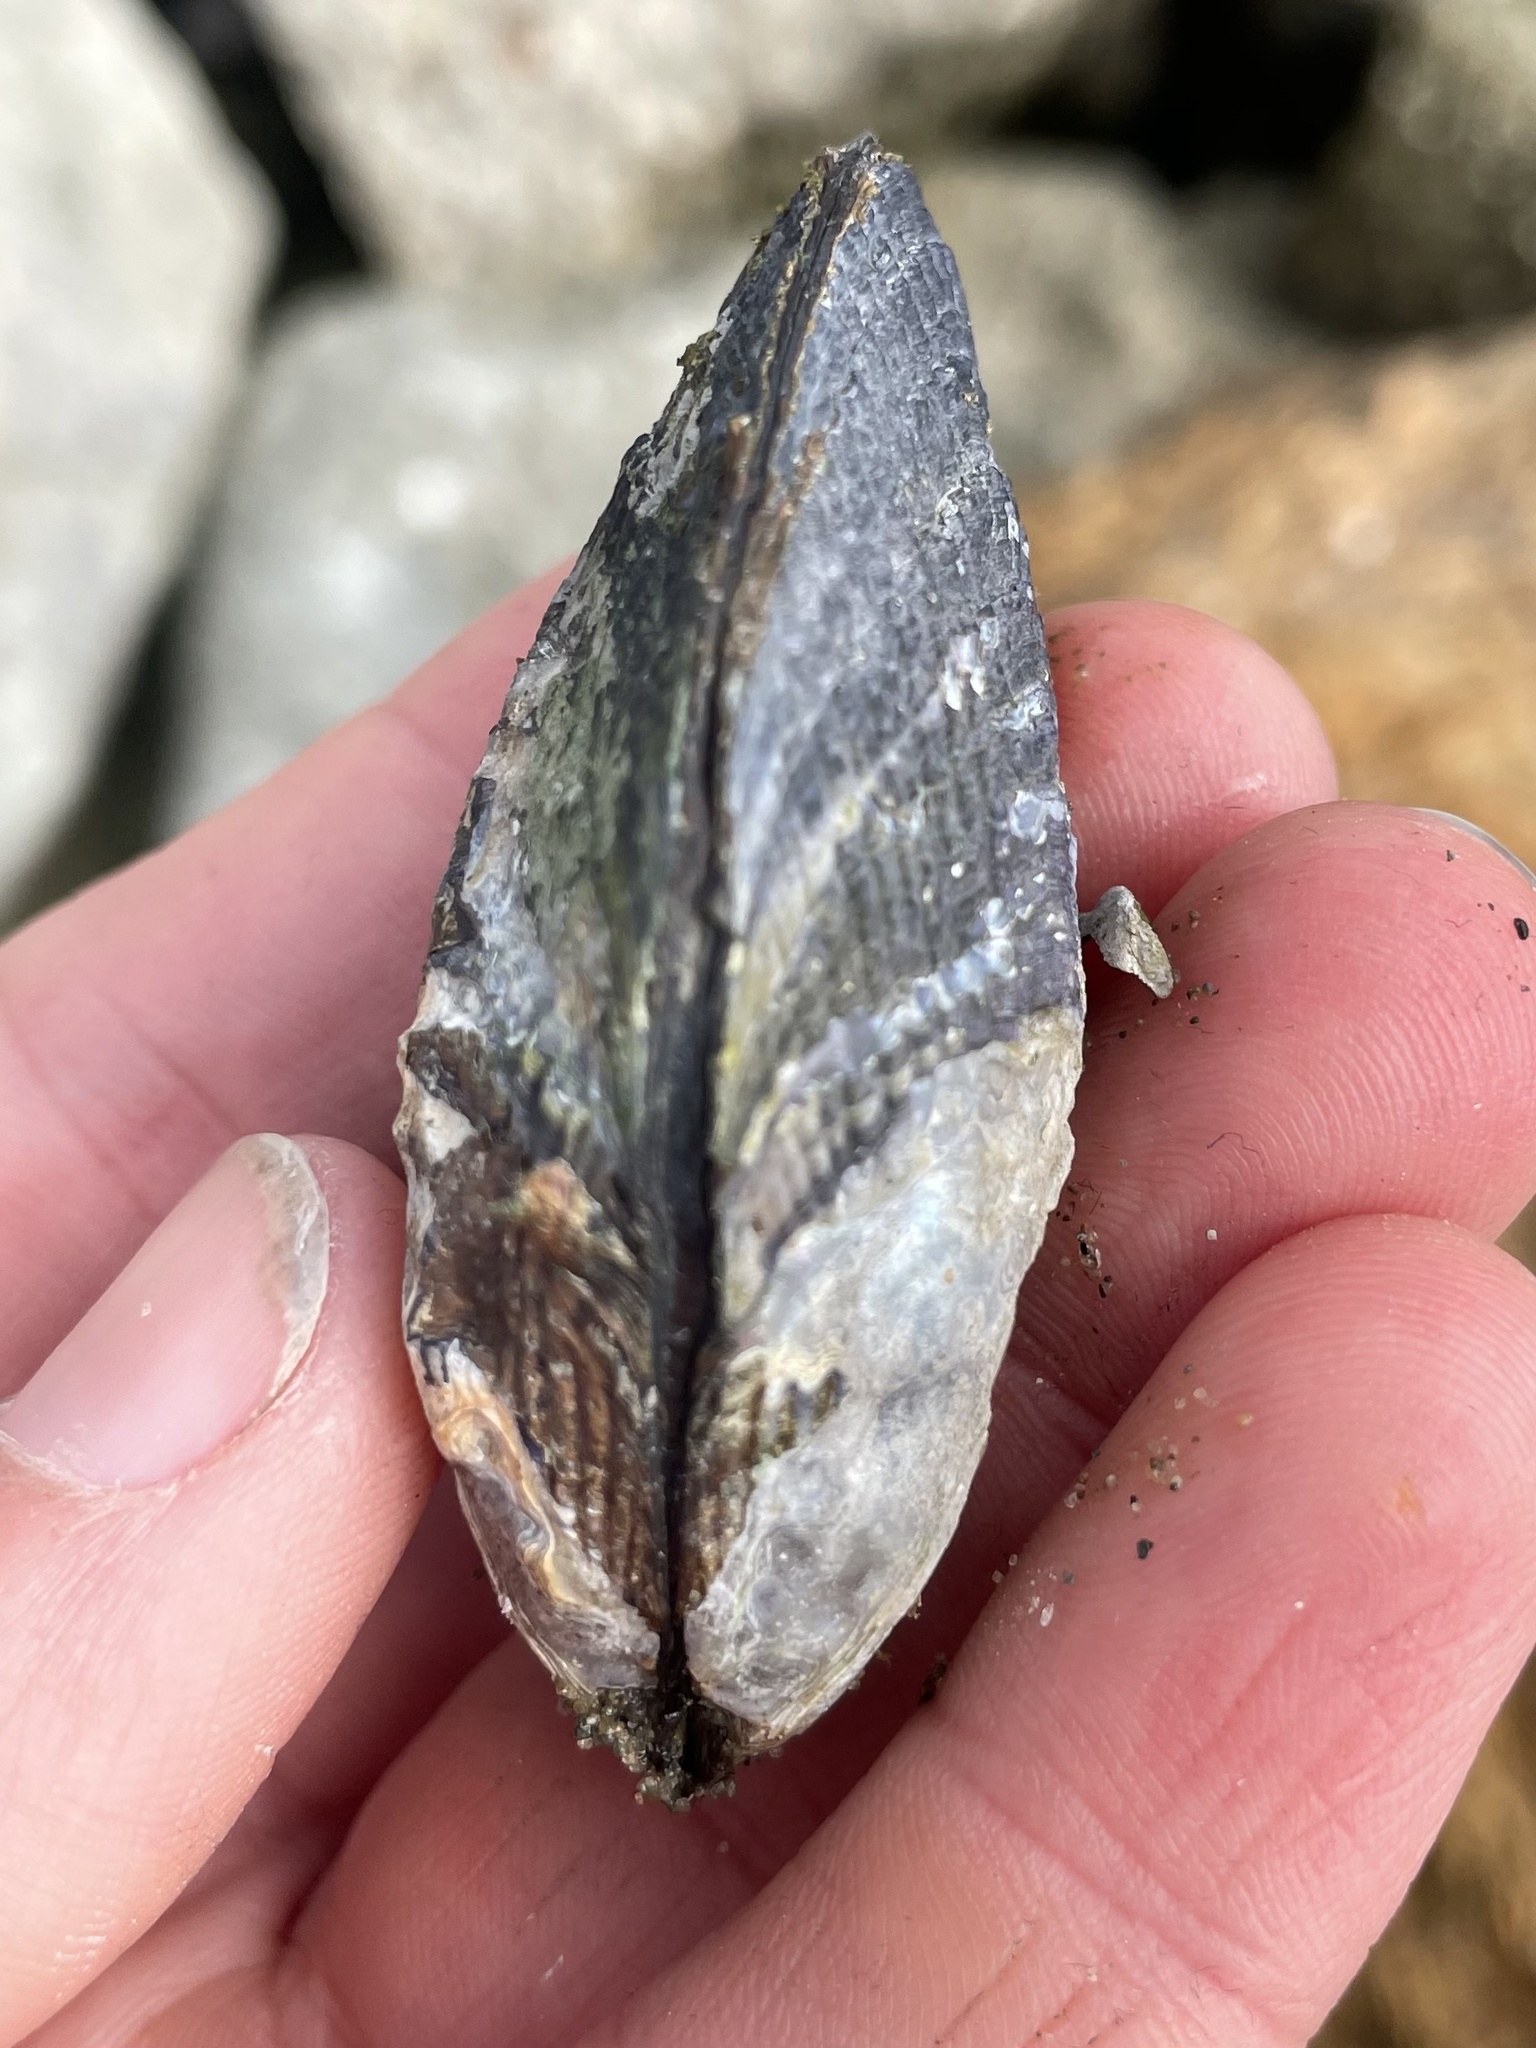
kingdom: Animalia
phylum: Mollusca
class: Bivalvia
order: Mytilida
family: Mytilidae
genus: Geukensia
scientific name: Geukensia demissa
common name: Ribbed mussel
